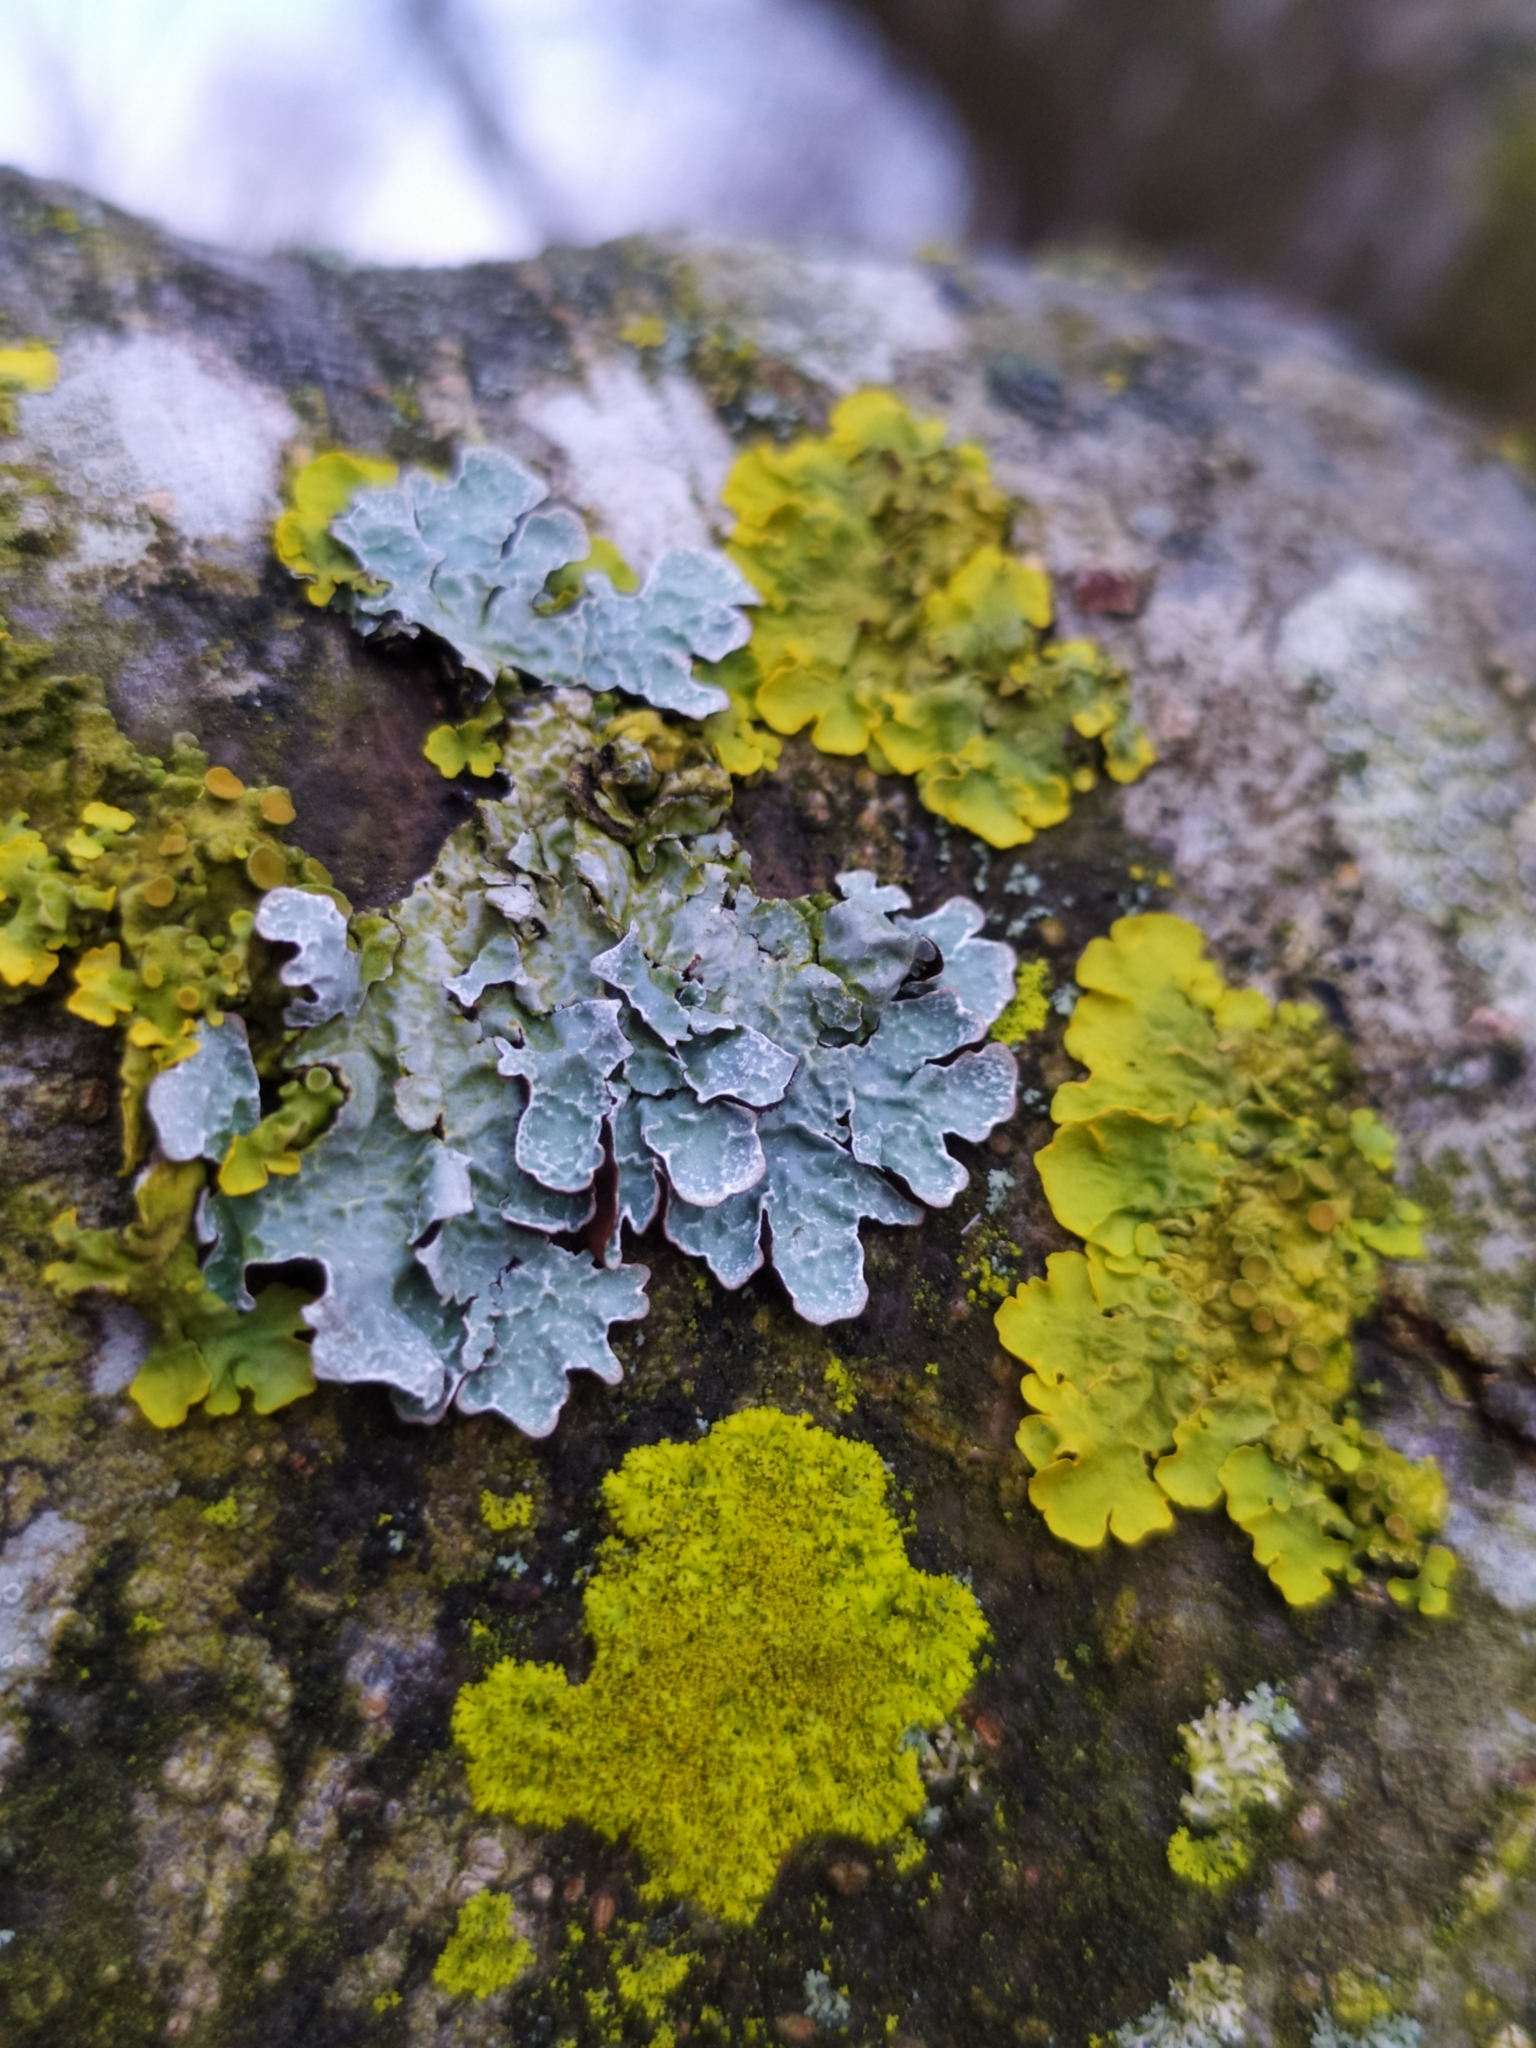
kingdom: Fungi
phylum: Ascomycota
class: Lecanoromycetes
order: Lecanorales
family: Parmeliaceae
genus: Parmelia
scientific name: Parmelia sulcata
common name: Netted shield lichen
